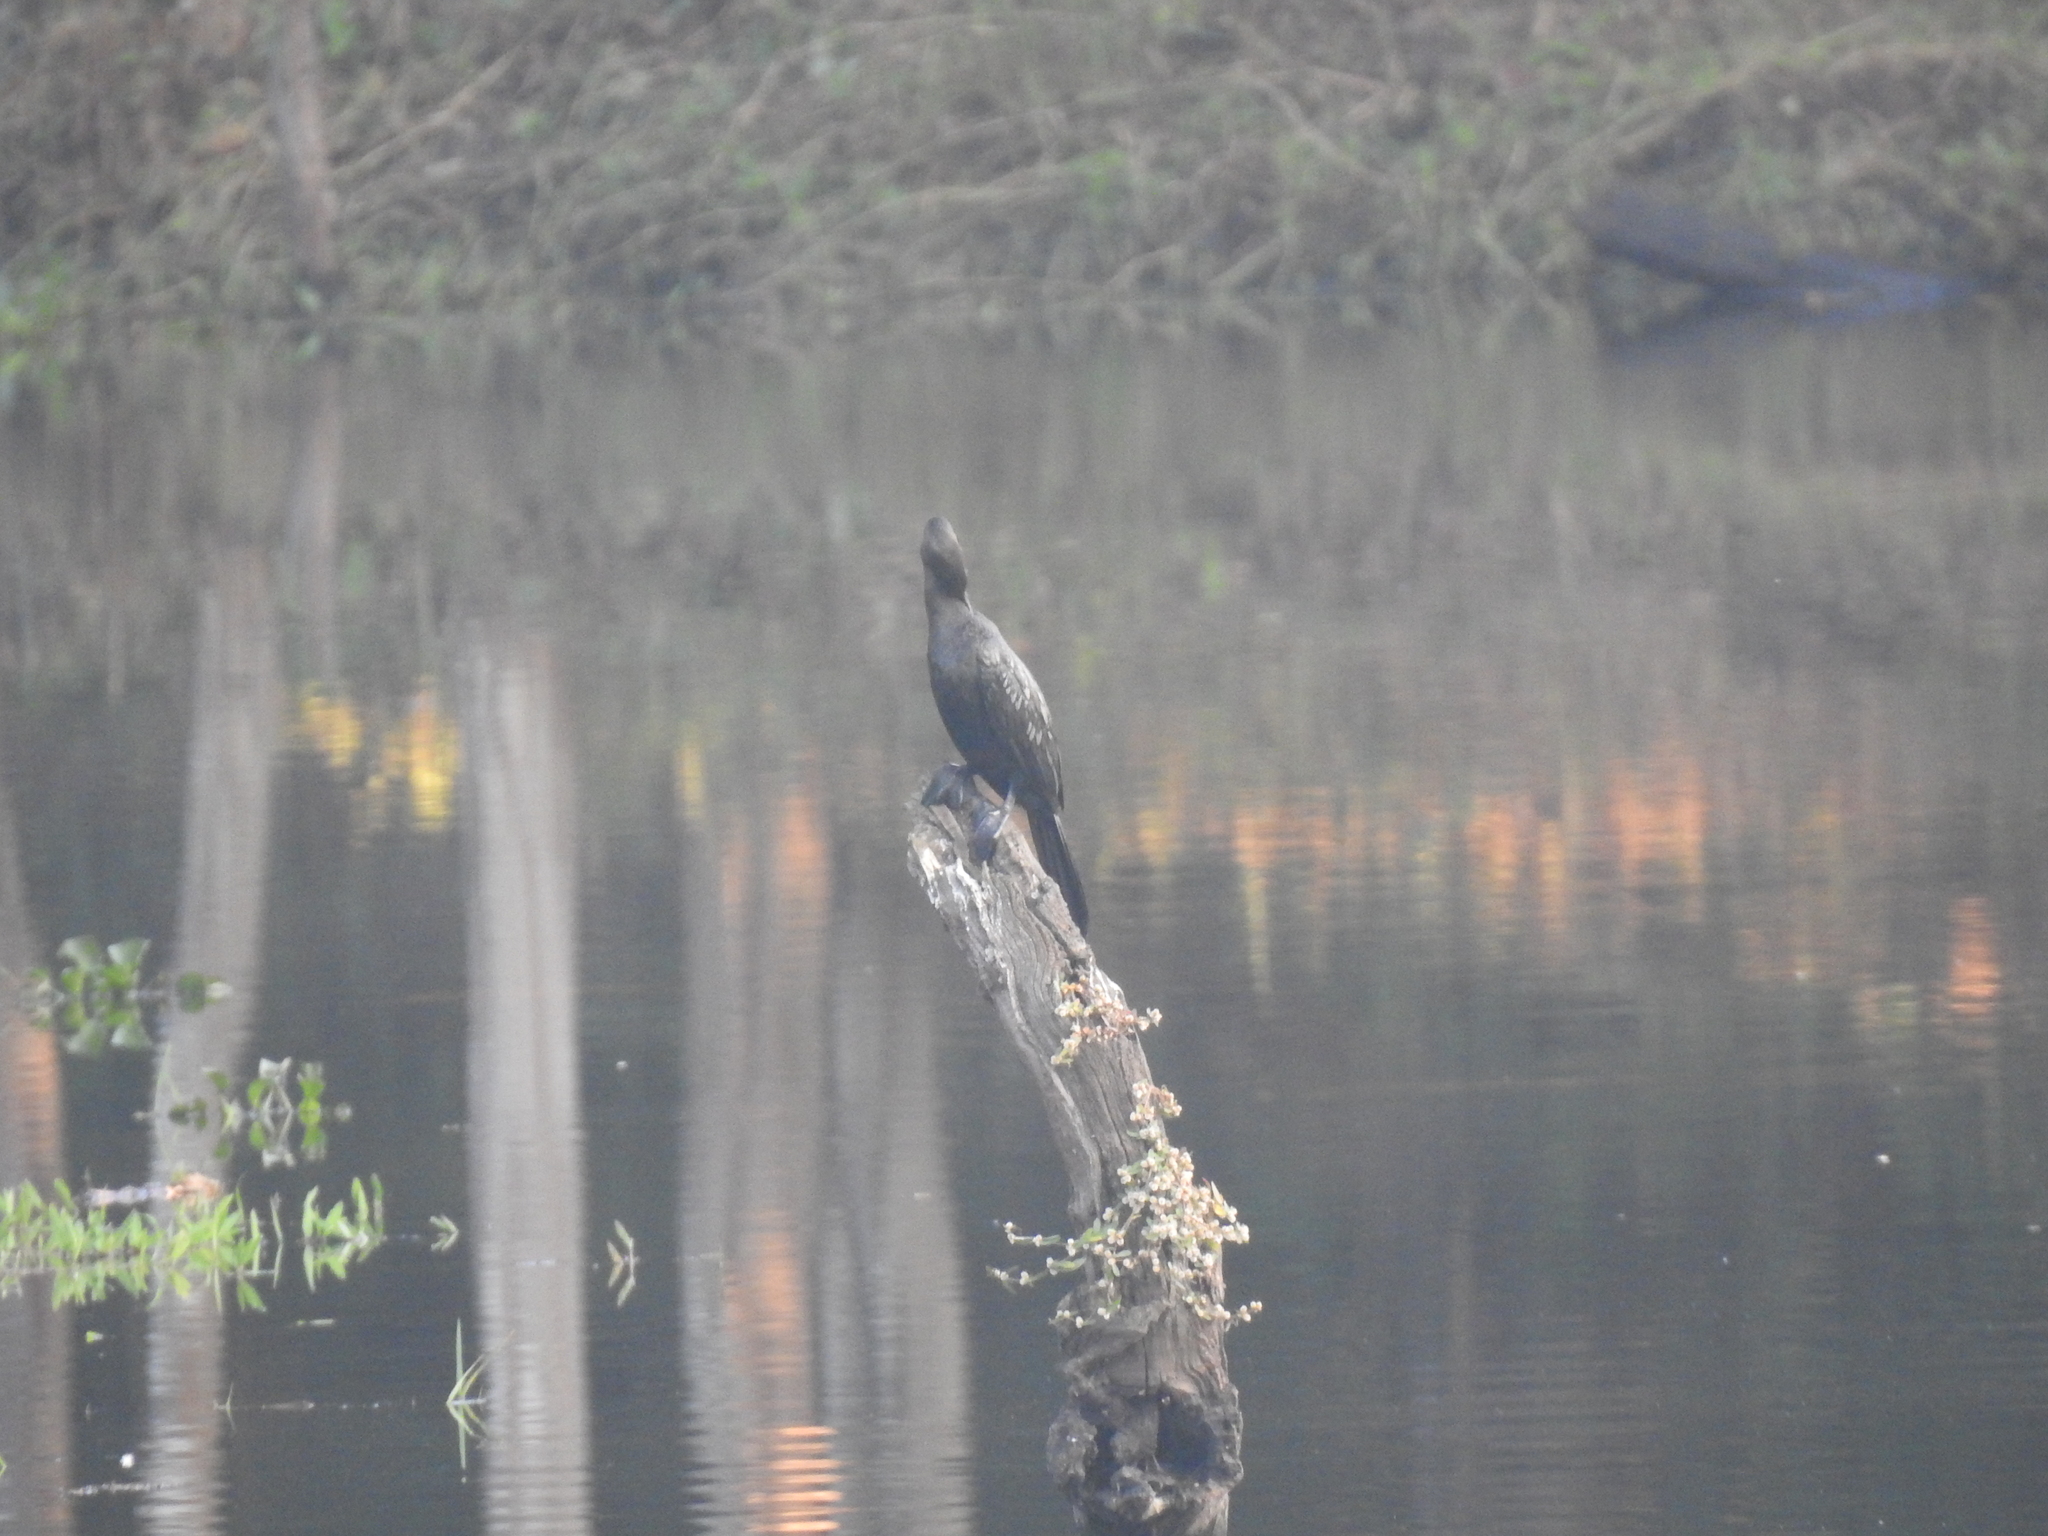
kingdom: Animalia
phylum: Chordata
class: Aves
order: Suliformes
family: Phalacrocoracidae
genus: Microcarbo
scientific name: Microcarbo niger
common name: Little cormorant
